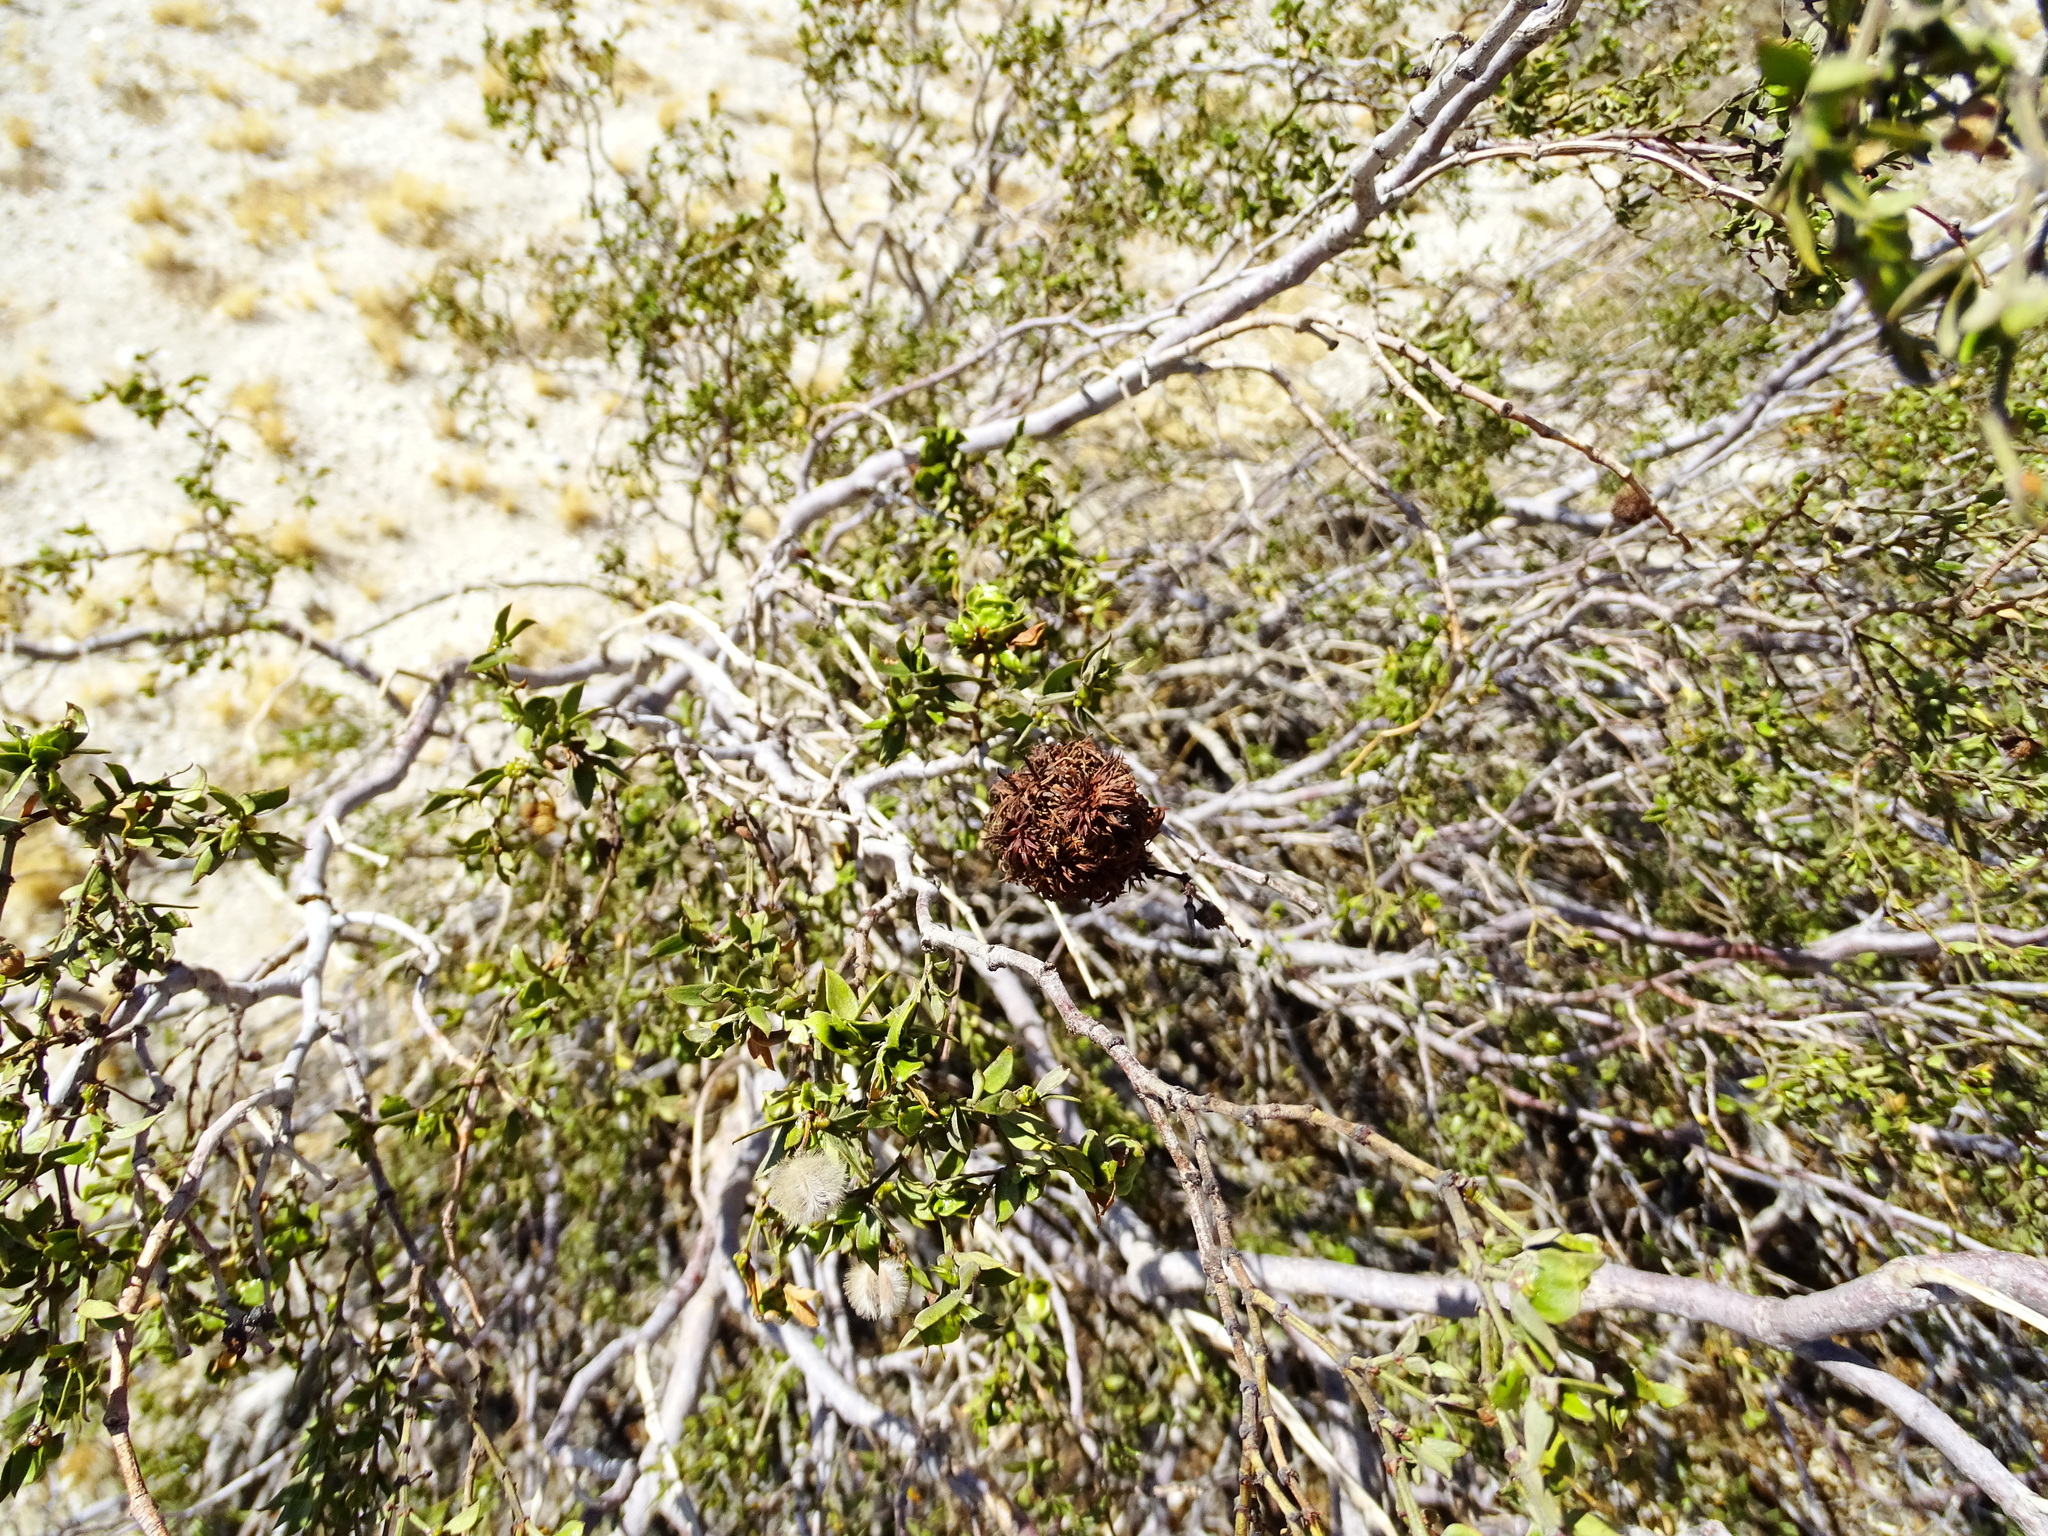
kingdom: Animalia
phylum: Arthropoda
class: Insecta
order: Diptera
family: Cecidomyiidae
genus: Asphondylia
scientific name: Asphondylia auripila
